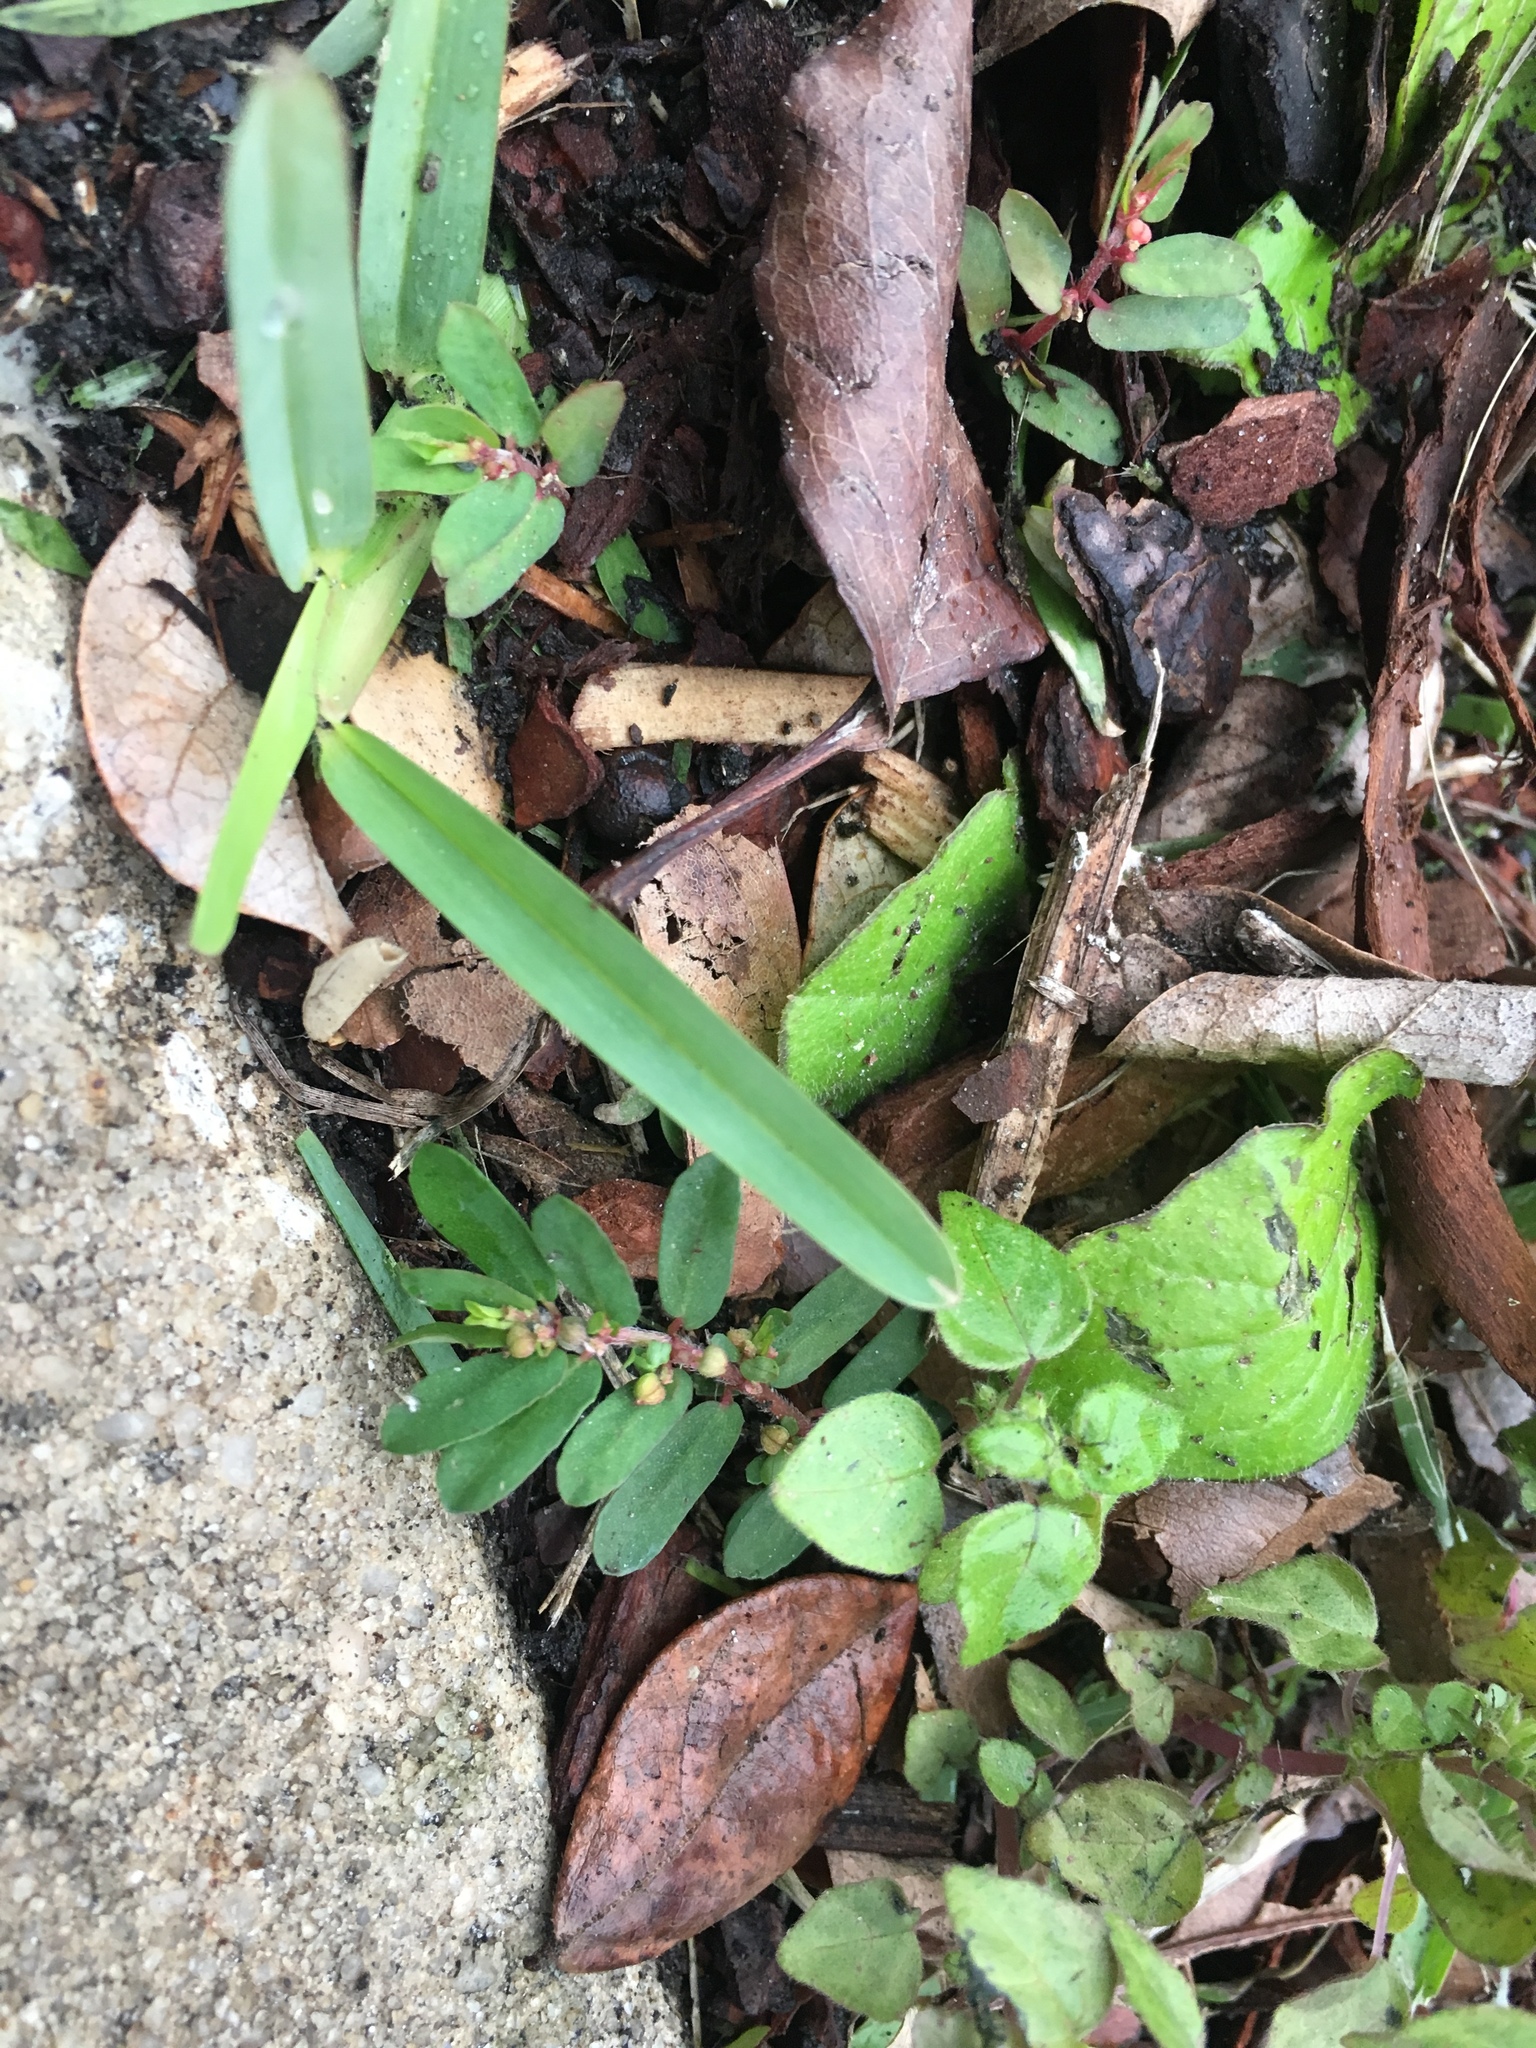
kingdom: Plantae
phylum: Tracheophyta
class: Magnoliopsida
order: Malpighiales
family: Euphorbiaceae
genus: Euphorbia
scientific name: Euphorbia maculata
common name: Spotted spurge
